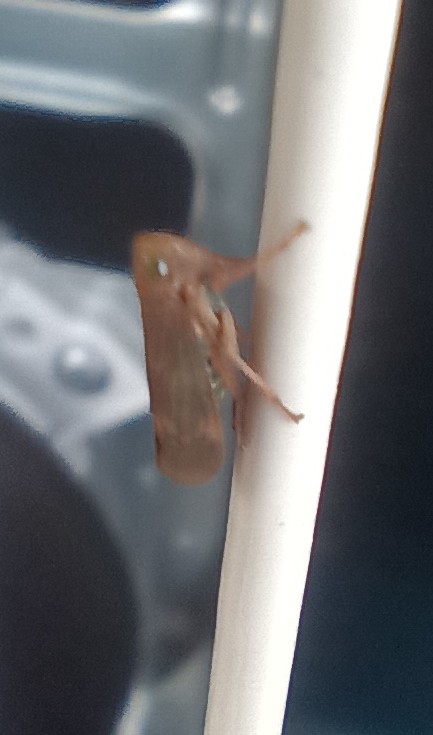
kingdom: Animalia
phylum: Arthropoda
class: Insecta
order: Hemiptera
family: Cicadellidae
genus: Jikradia
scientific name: Jikradia olitoria
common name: Coppery leafhopper
